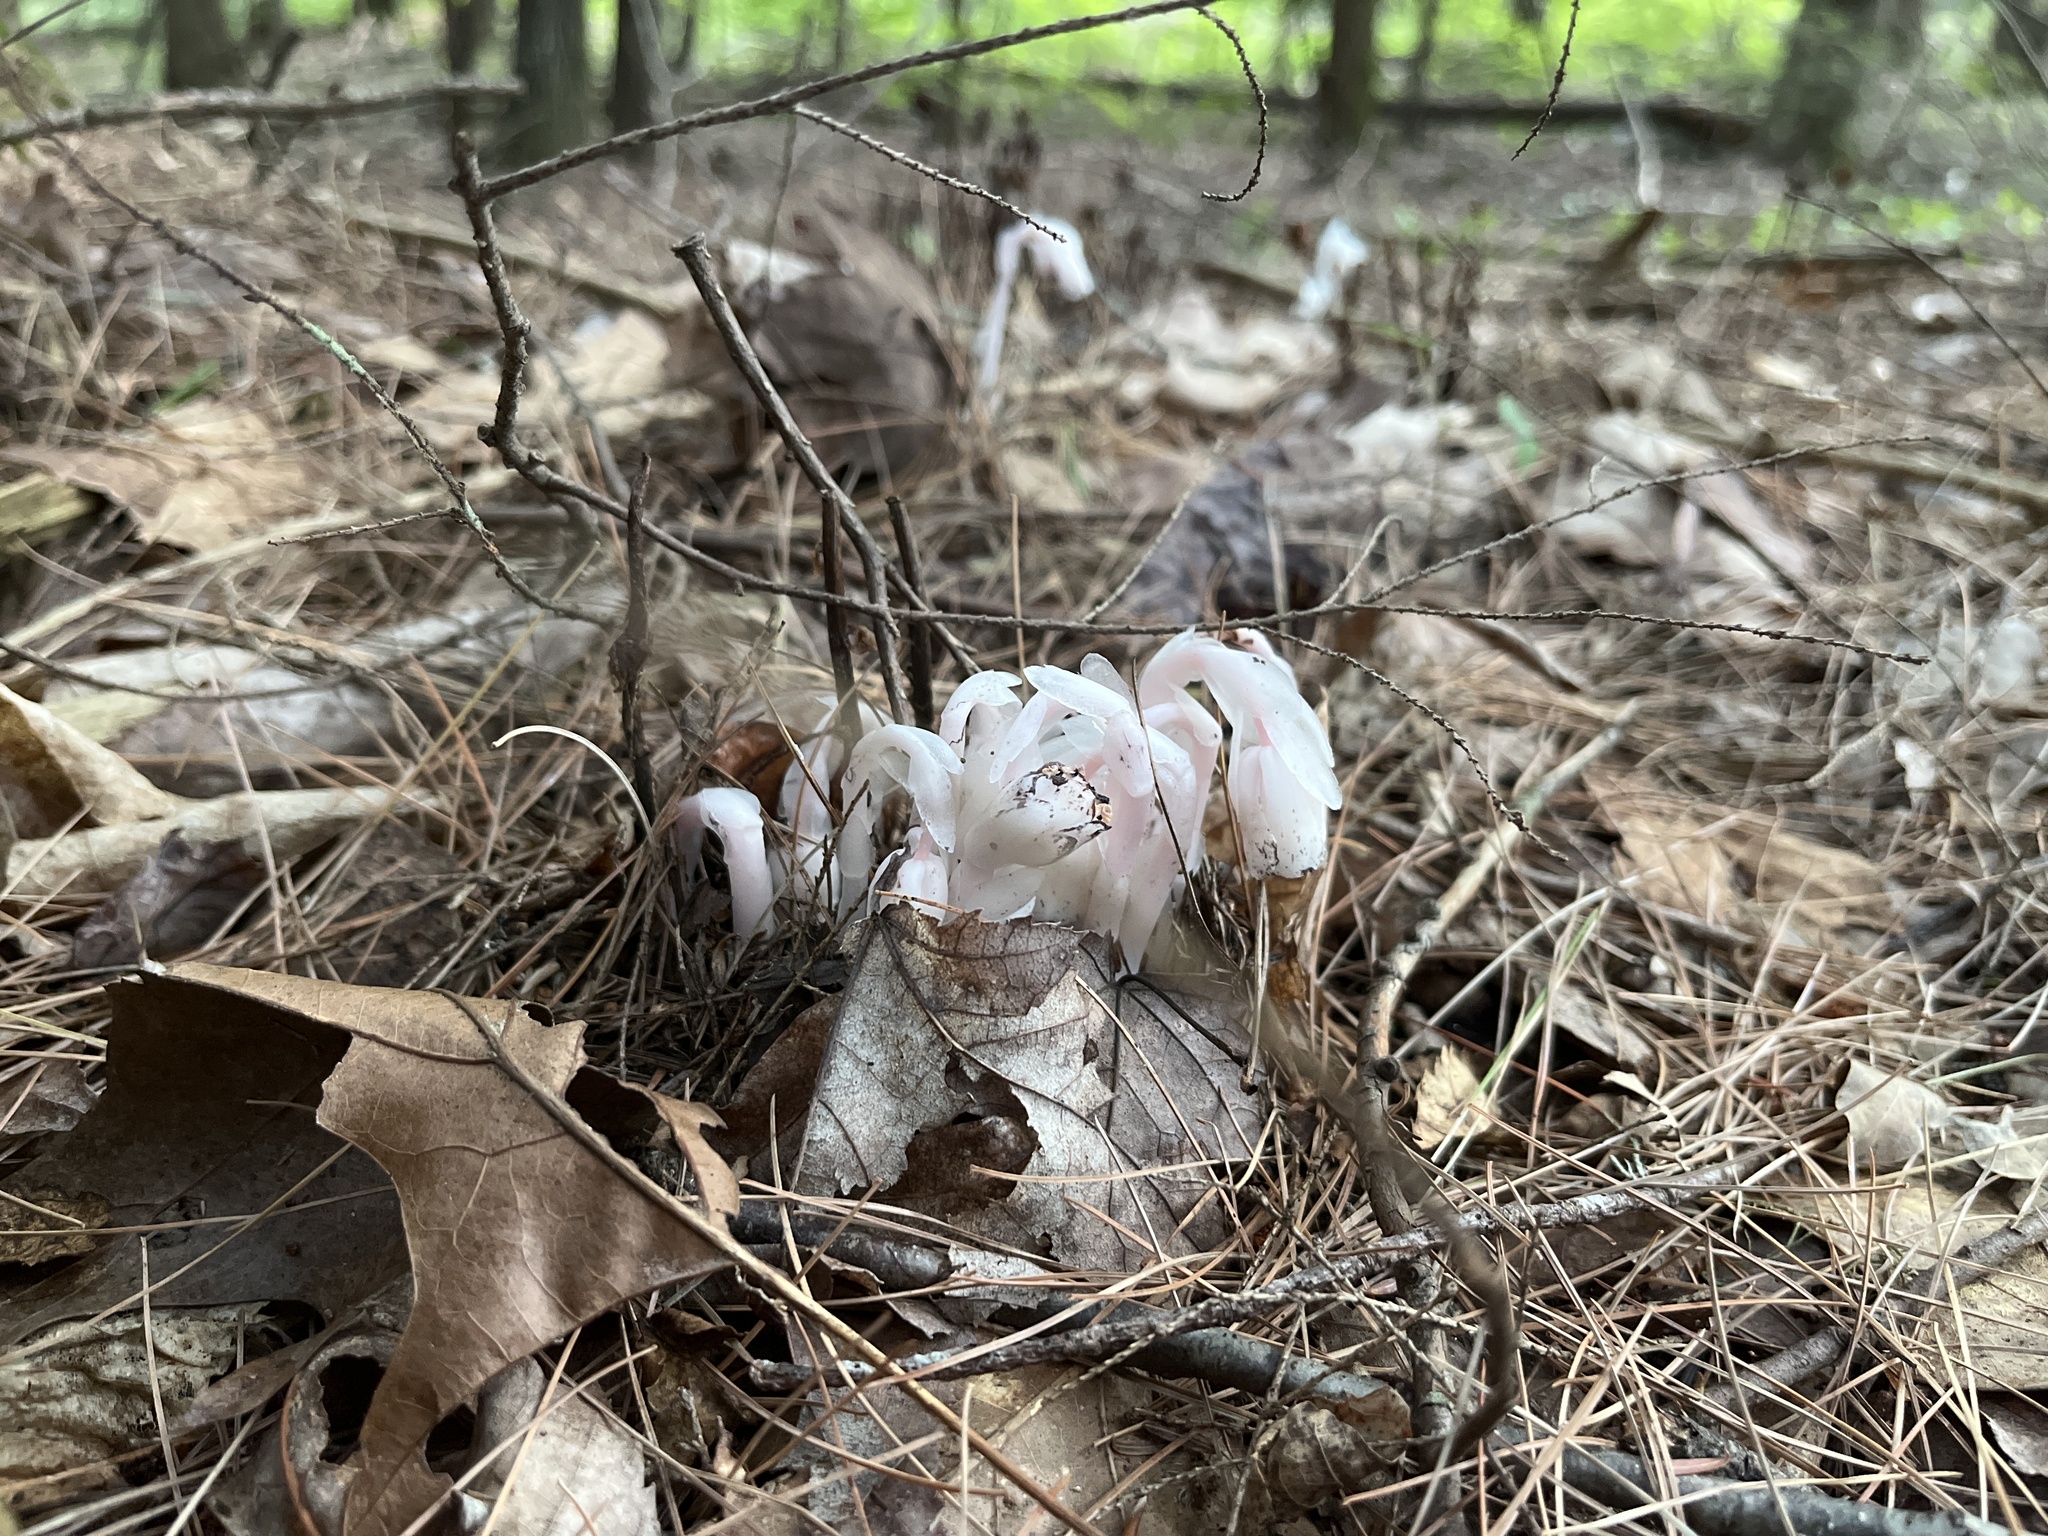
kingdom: Plantae
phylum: Tracheophyta
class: Magnoliopsida
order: Ericales
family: Ericaceae
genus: Monotropa
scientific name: Monotropa uniflora
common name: Convulsion root
